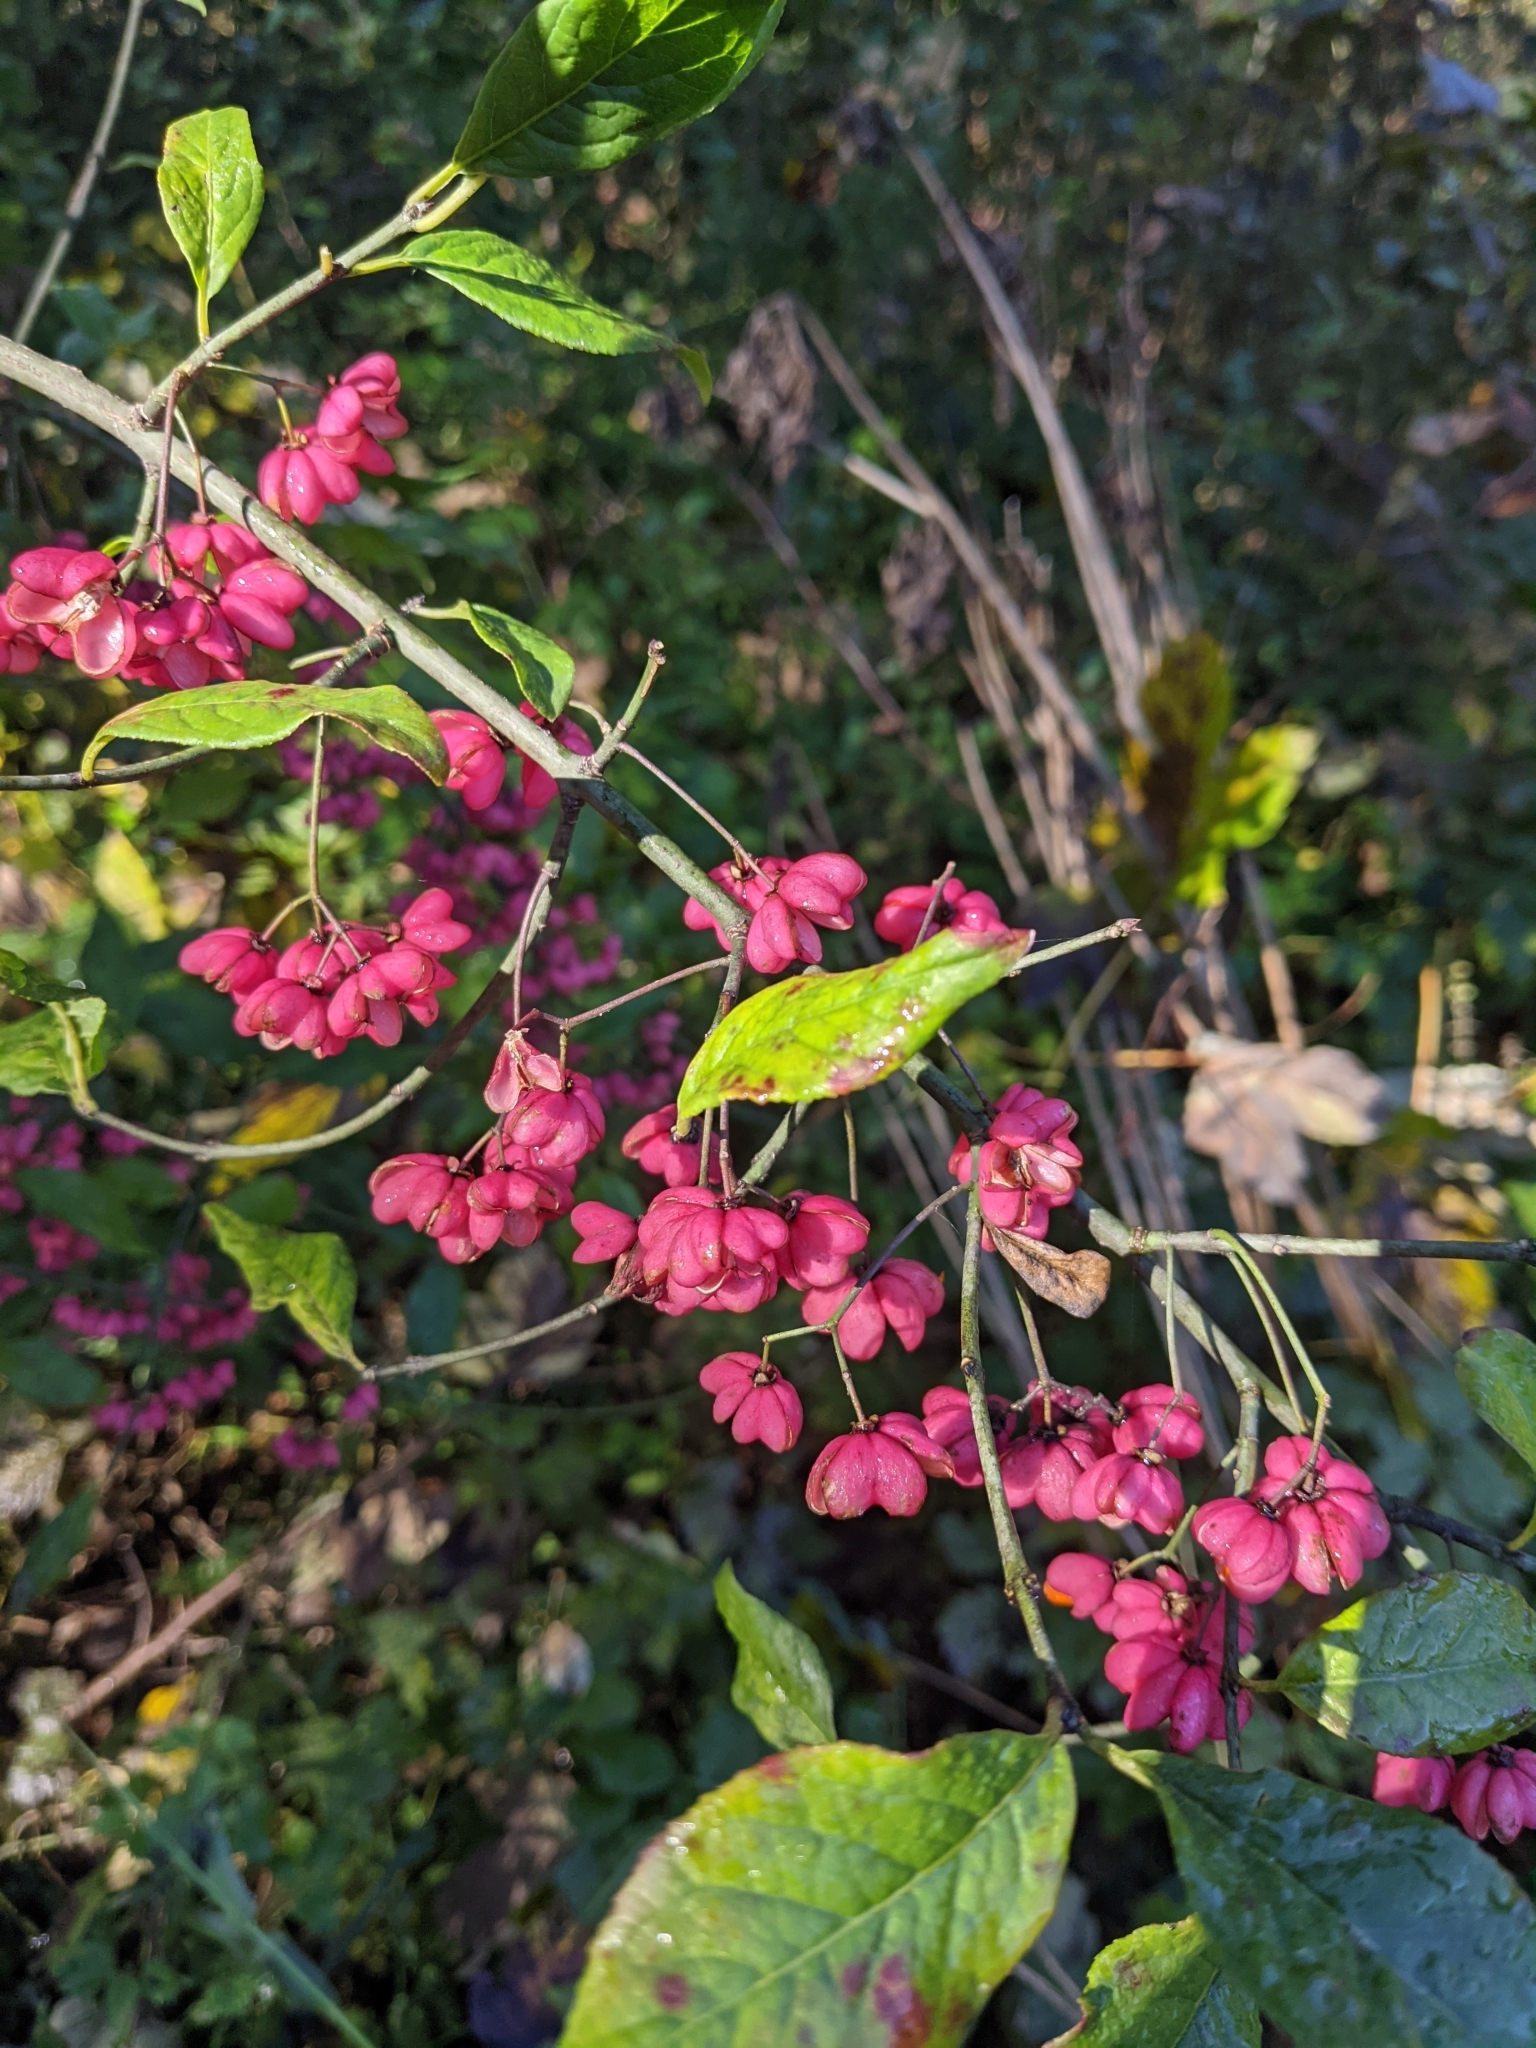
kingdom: Plantae
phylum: Tracheophyta
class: Magnoliopsida
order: Celastrales
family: Celastraceae
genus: Euonymus
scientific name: Euonymus europaeus
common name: Spindle
